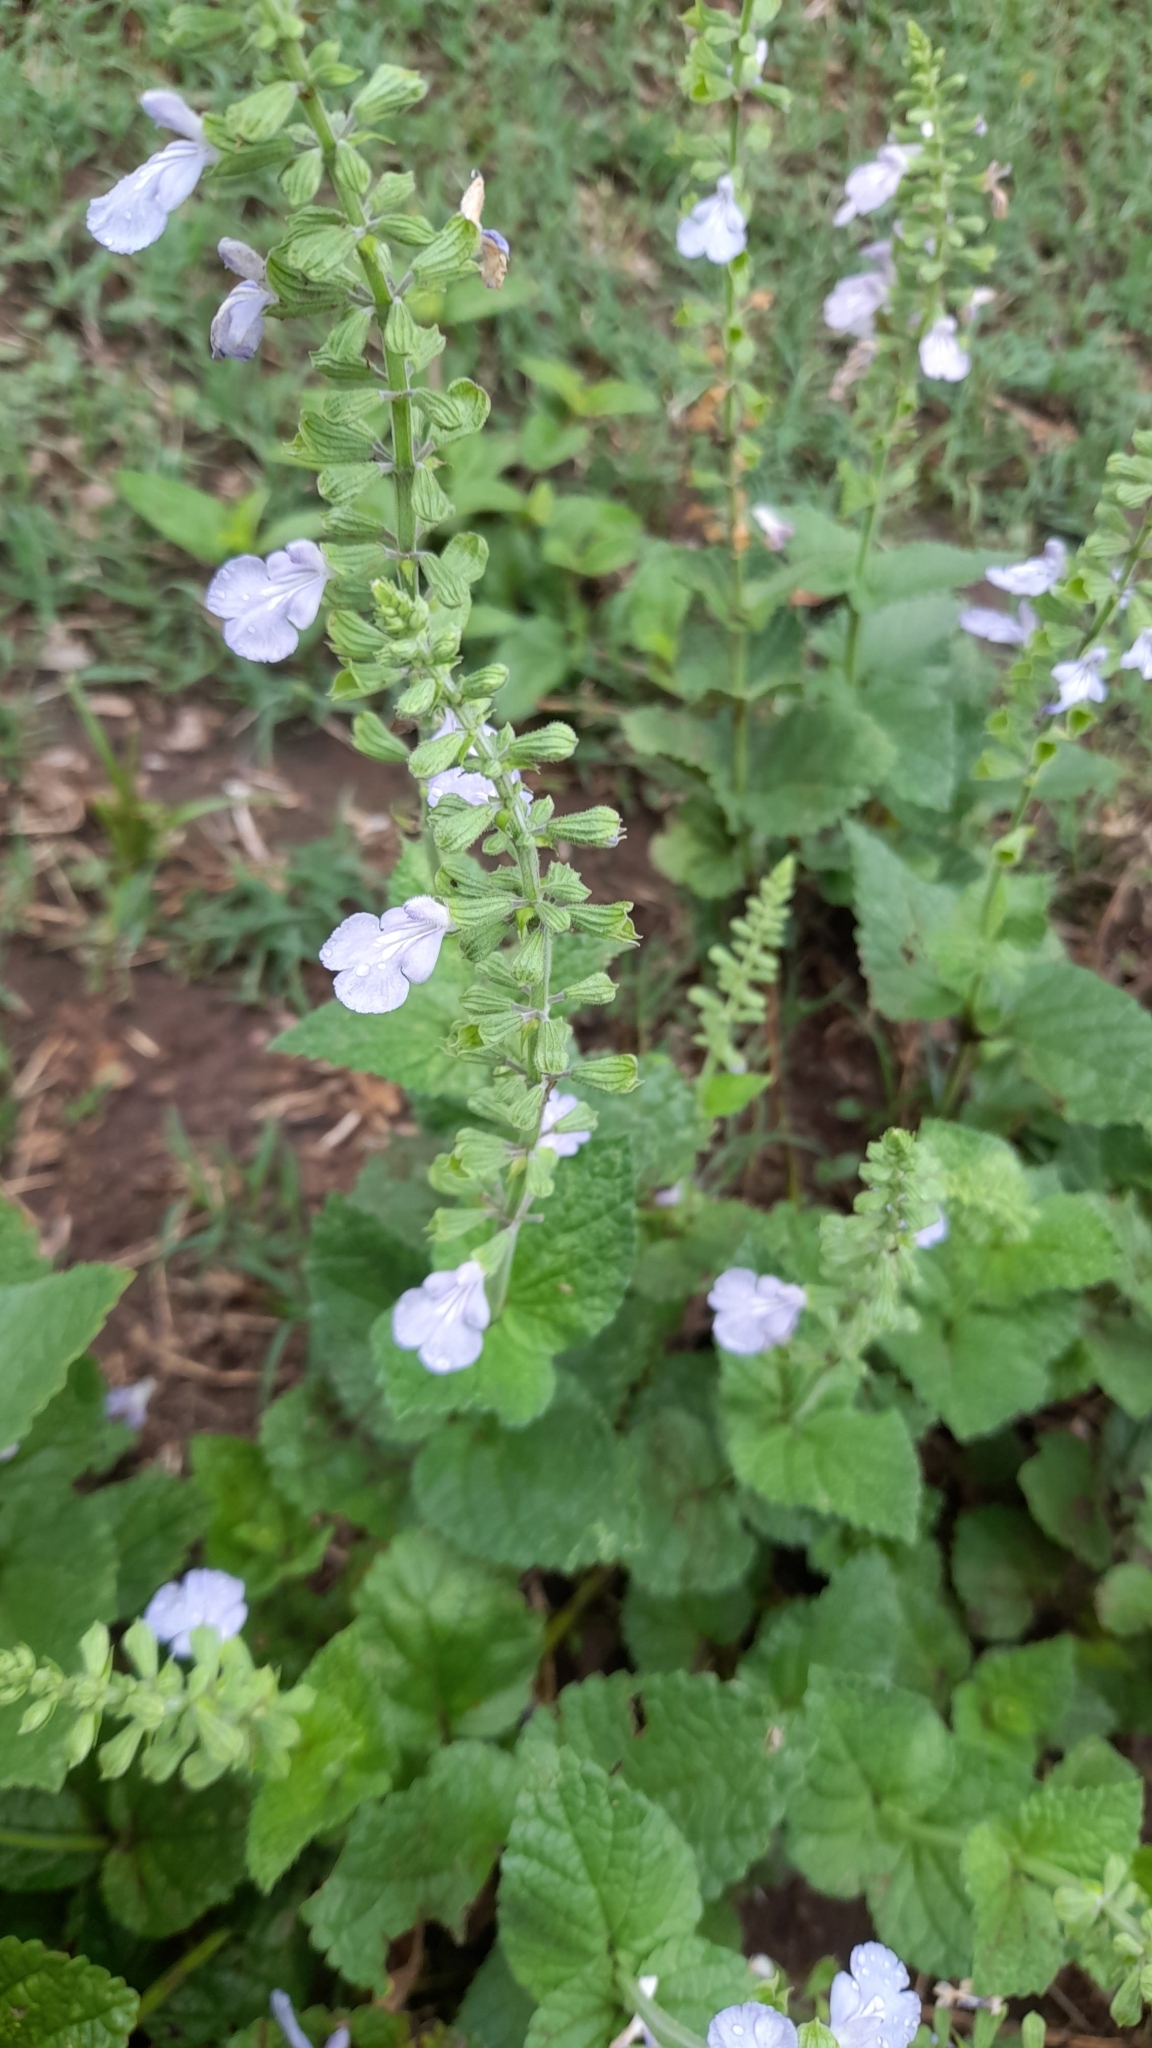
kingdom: Plantae
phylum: Tracheophyta
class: Magnoliopsida
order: Lamiales
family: Lamiaceae
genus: Salvia
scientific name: Salvia cardiophylla
